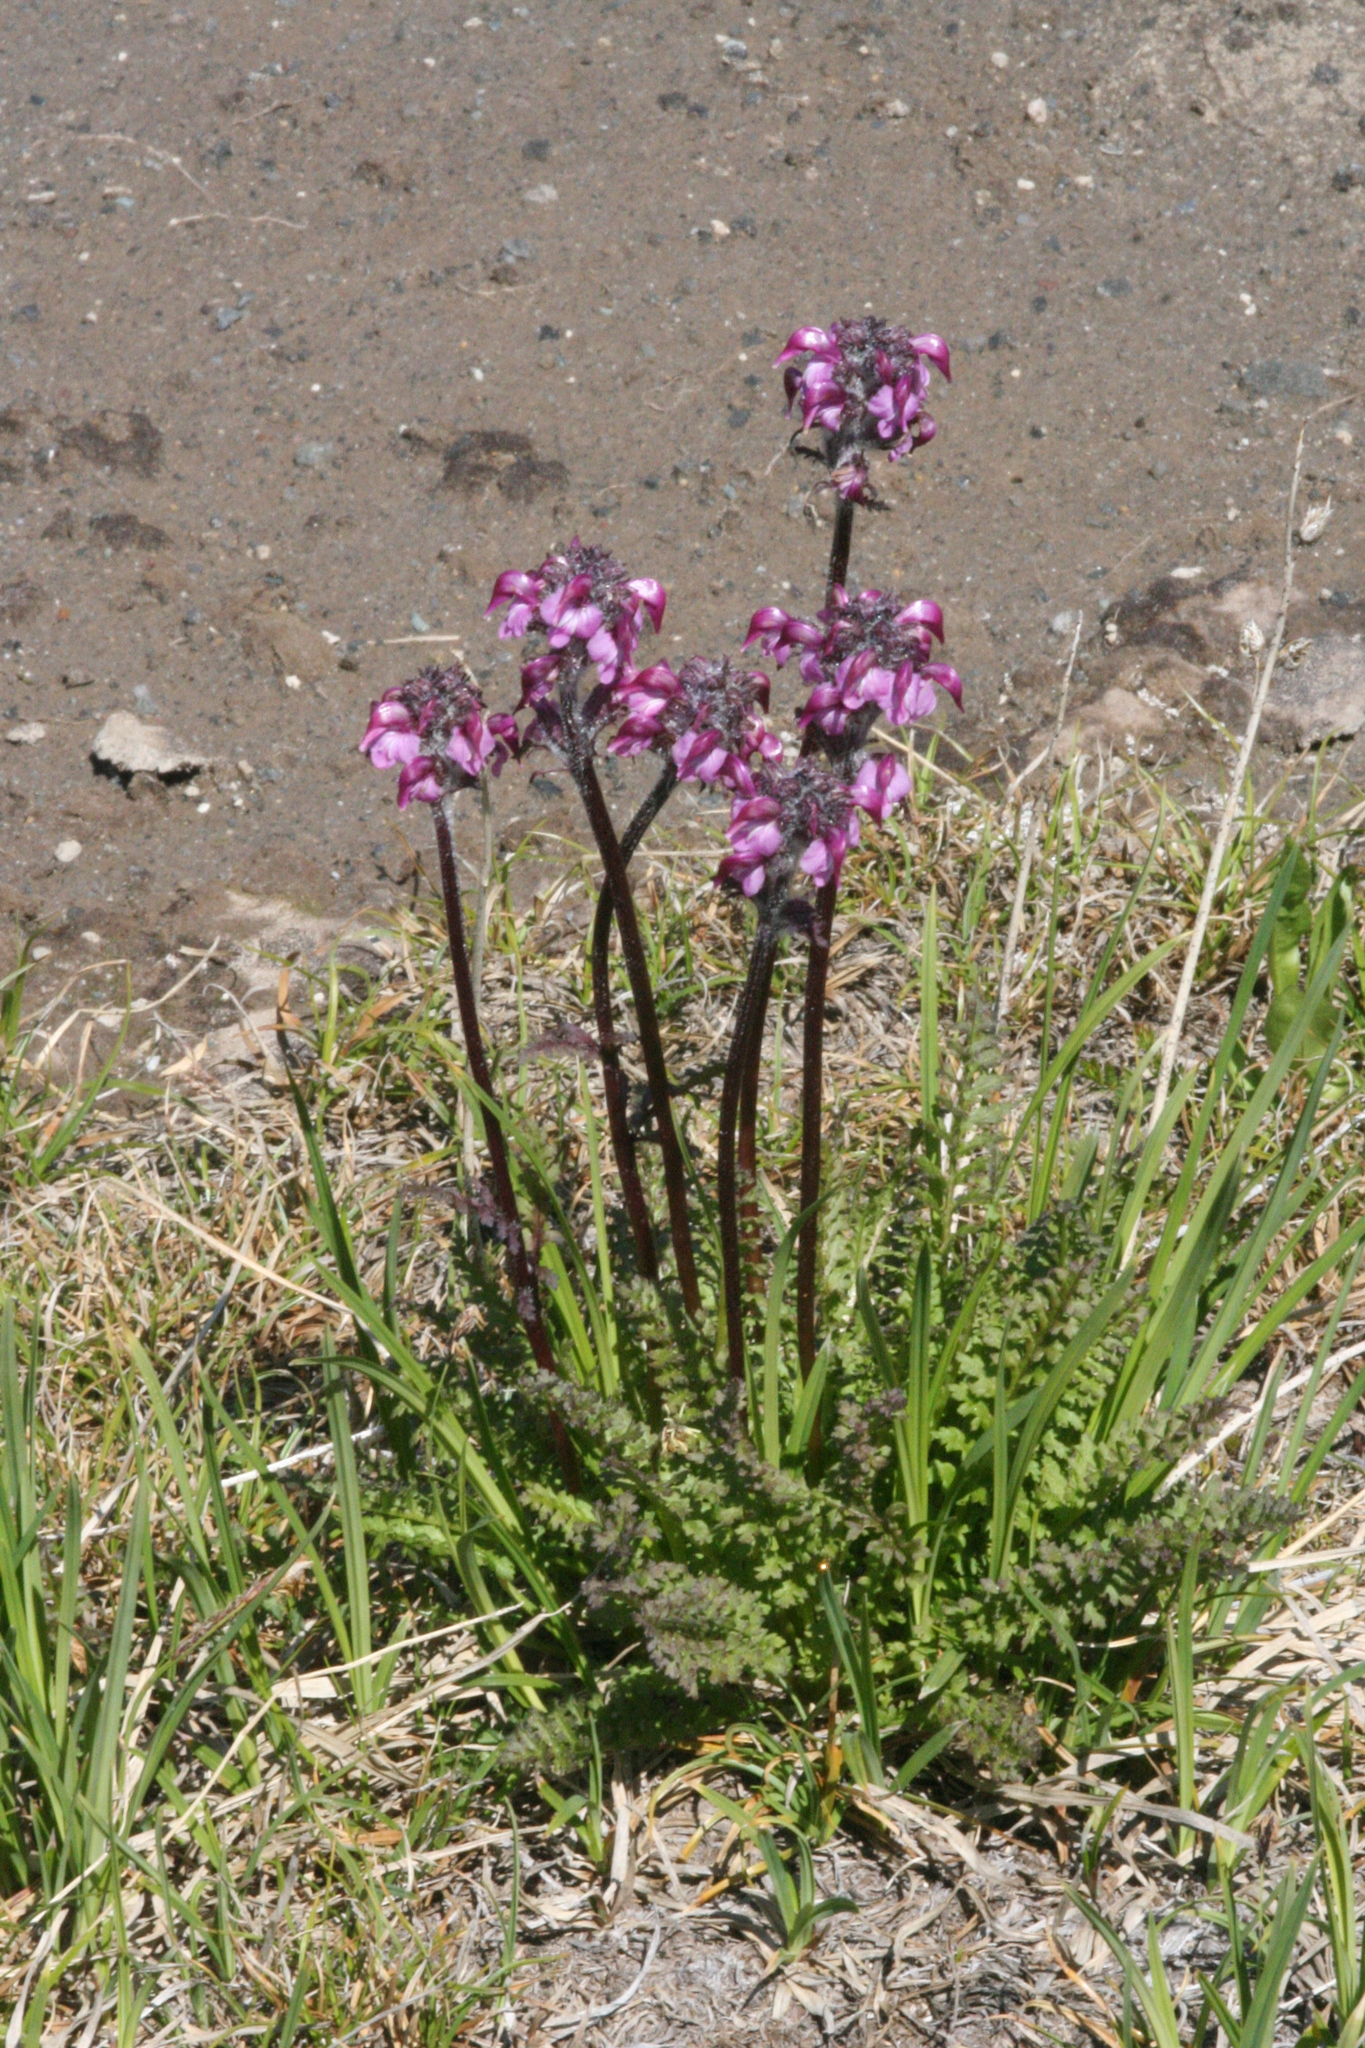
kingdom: Plantae
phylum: Tracheophyta
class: Magnoliopsida
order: Lamiales
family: Orobanchaceae
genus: Pedicularis
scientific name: Pedicularis ornithorhynchos
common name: Bird's-beak lousewort
